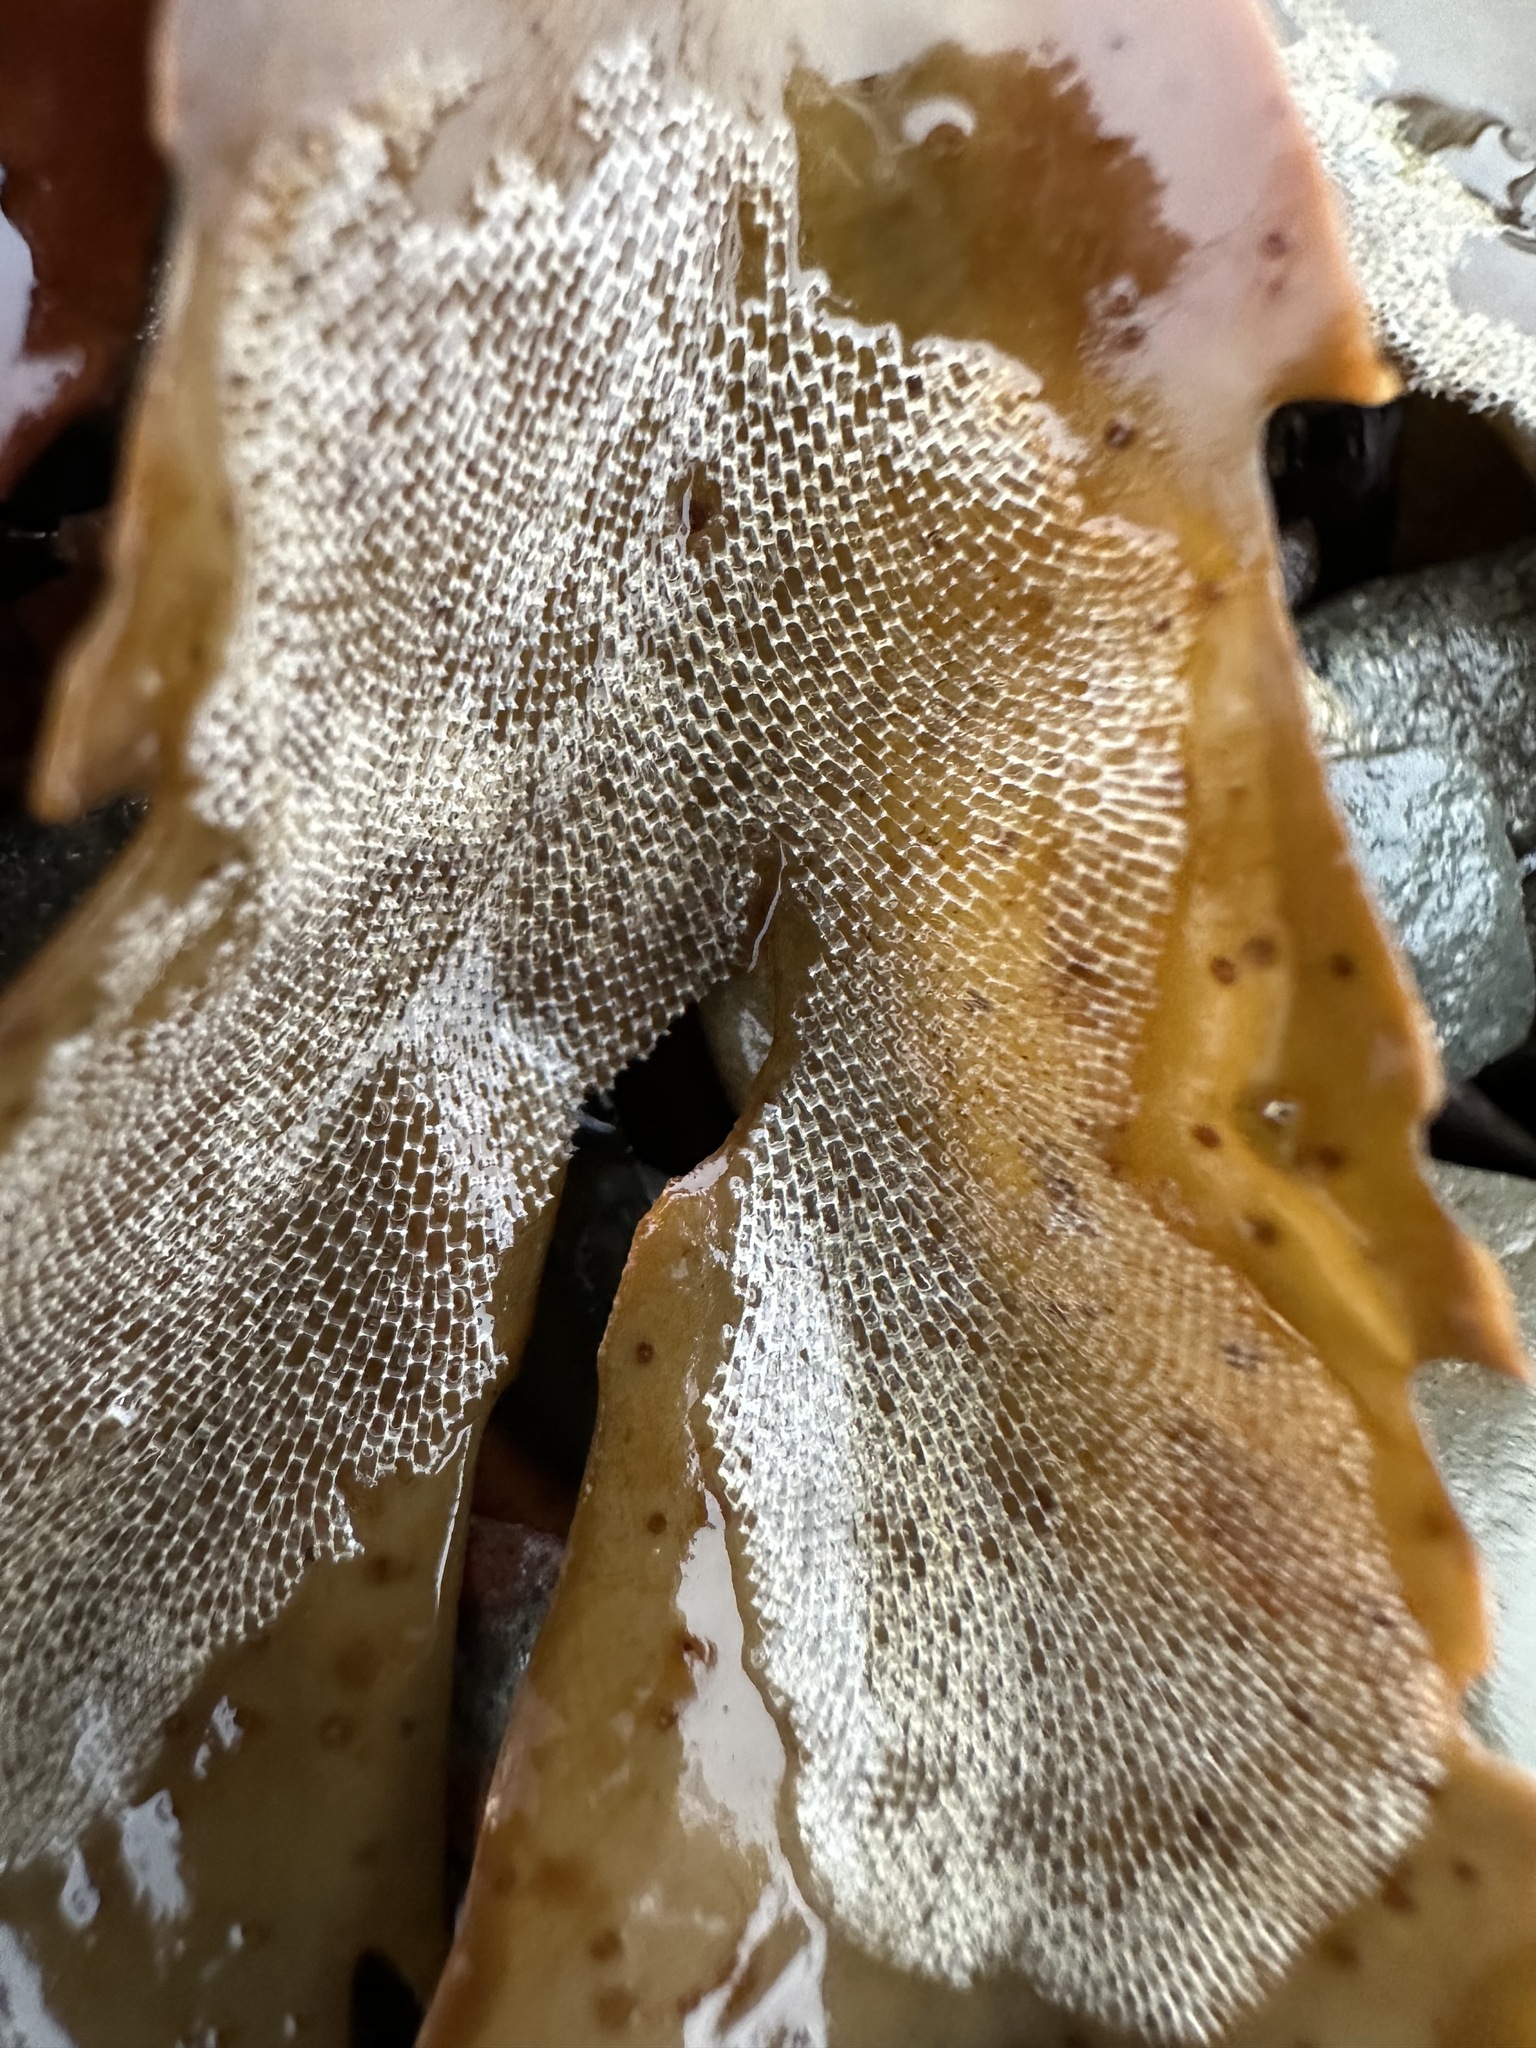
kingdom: Animalia
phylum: Bryozoa
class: Gymnolaemata
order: Cheilostomatida
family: Membraniporidae
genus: Membranipora
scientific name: Membranipora membranacea
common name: Sea mat
